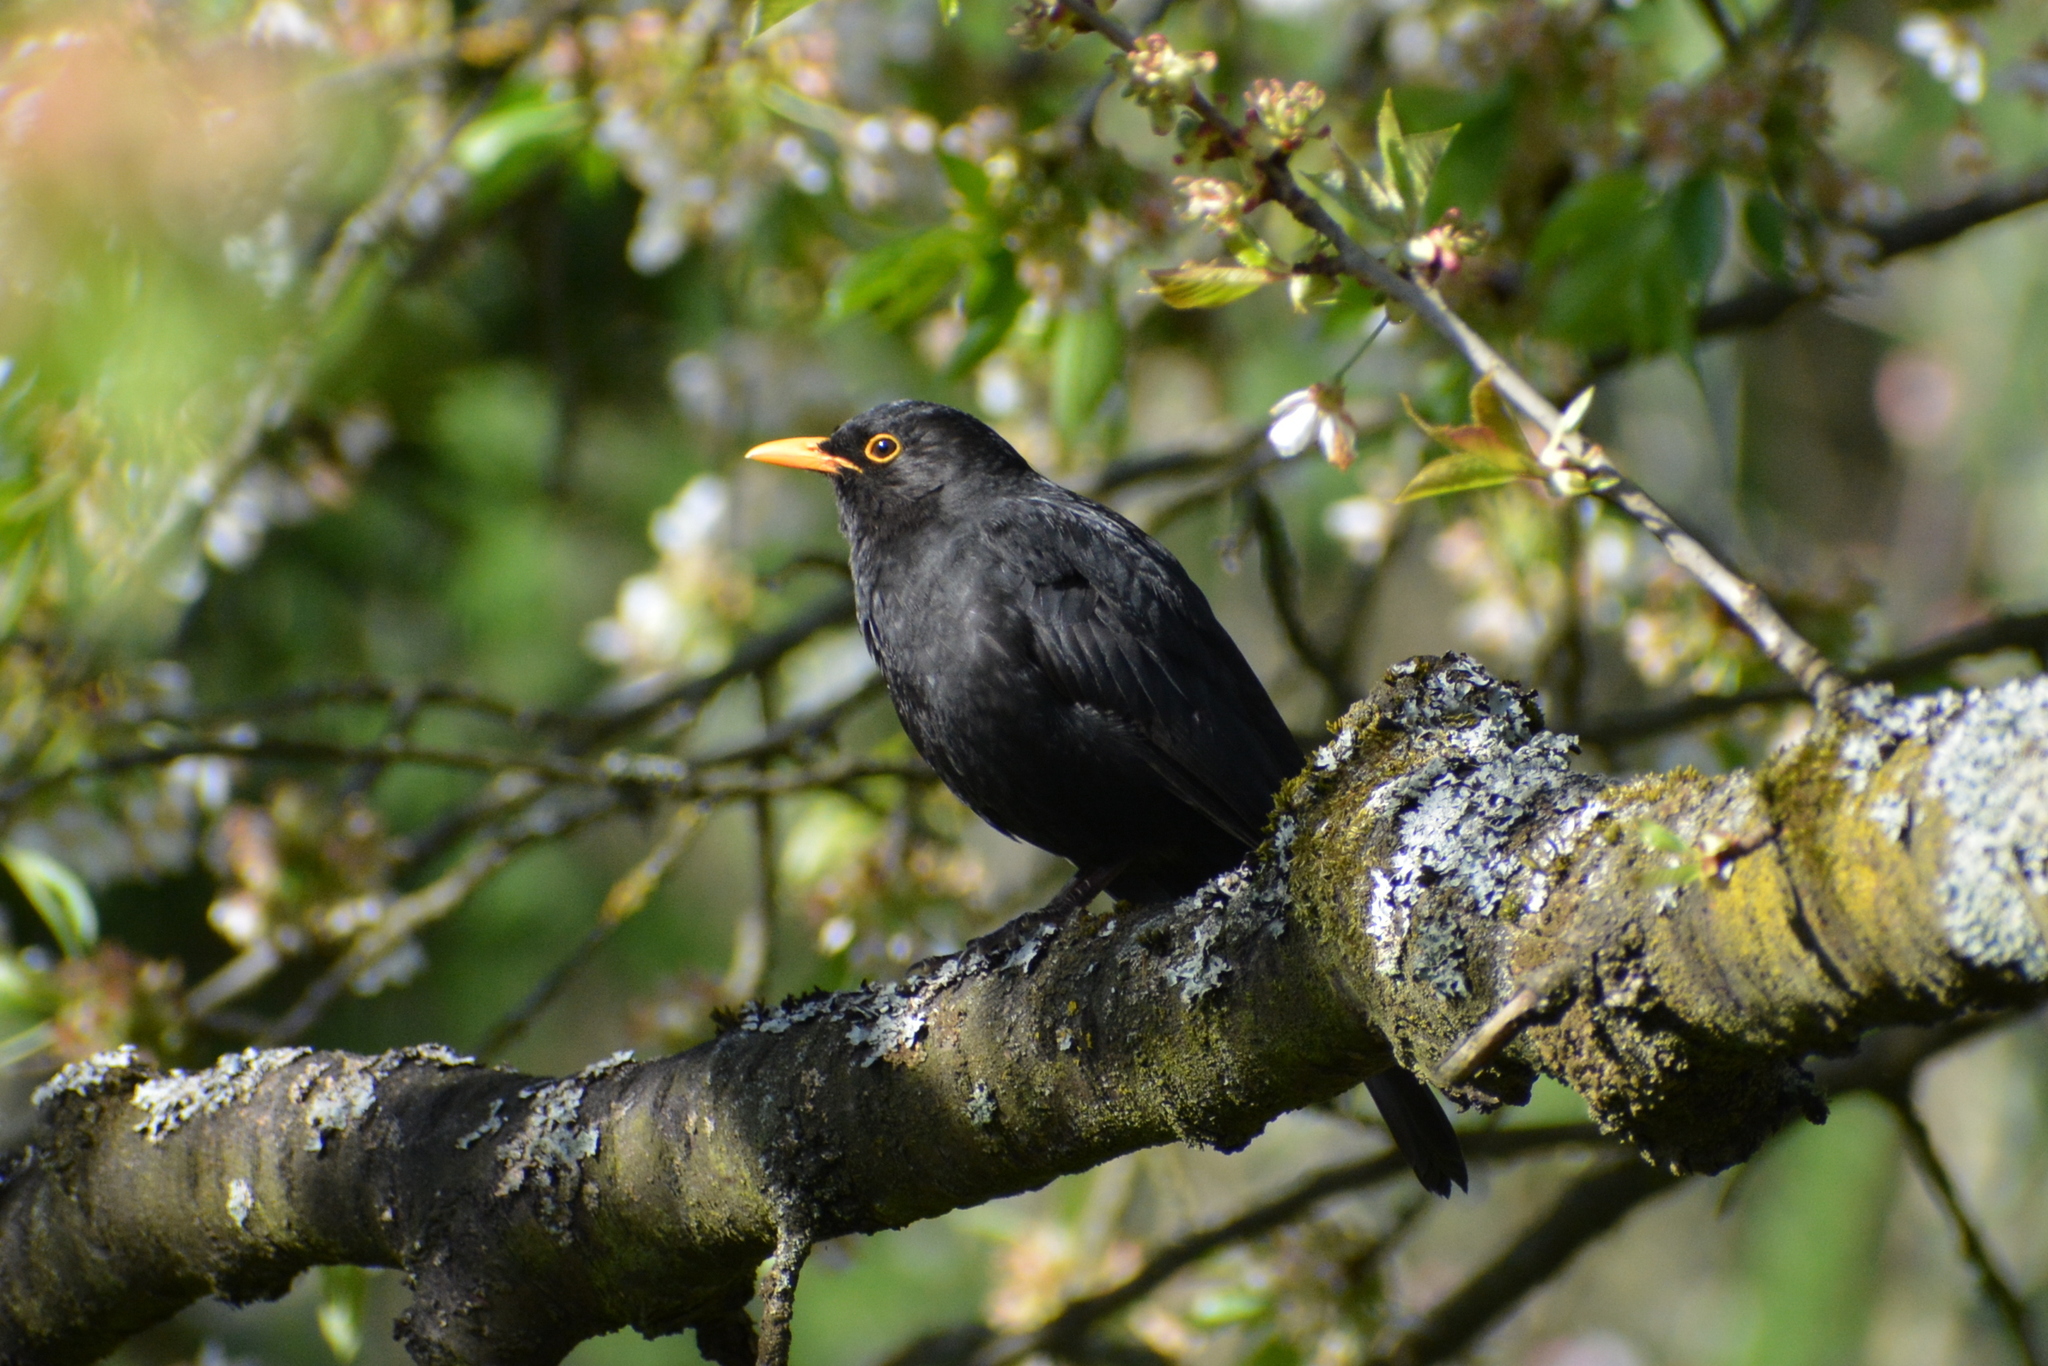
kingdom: Animalia
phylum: Chordata
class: Aves
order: Passeriformes
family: Turdidae
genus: Turdus
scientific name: Turdus merula
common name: Common blackbird
